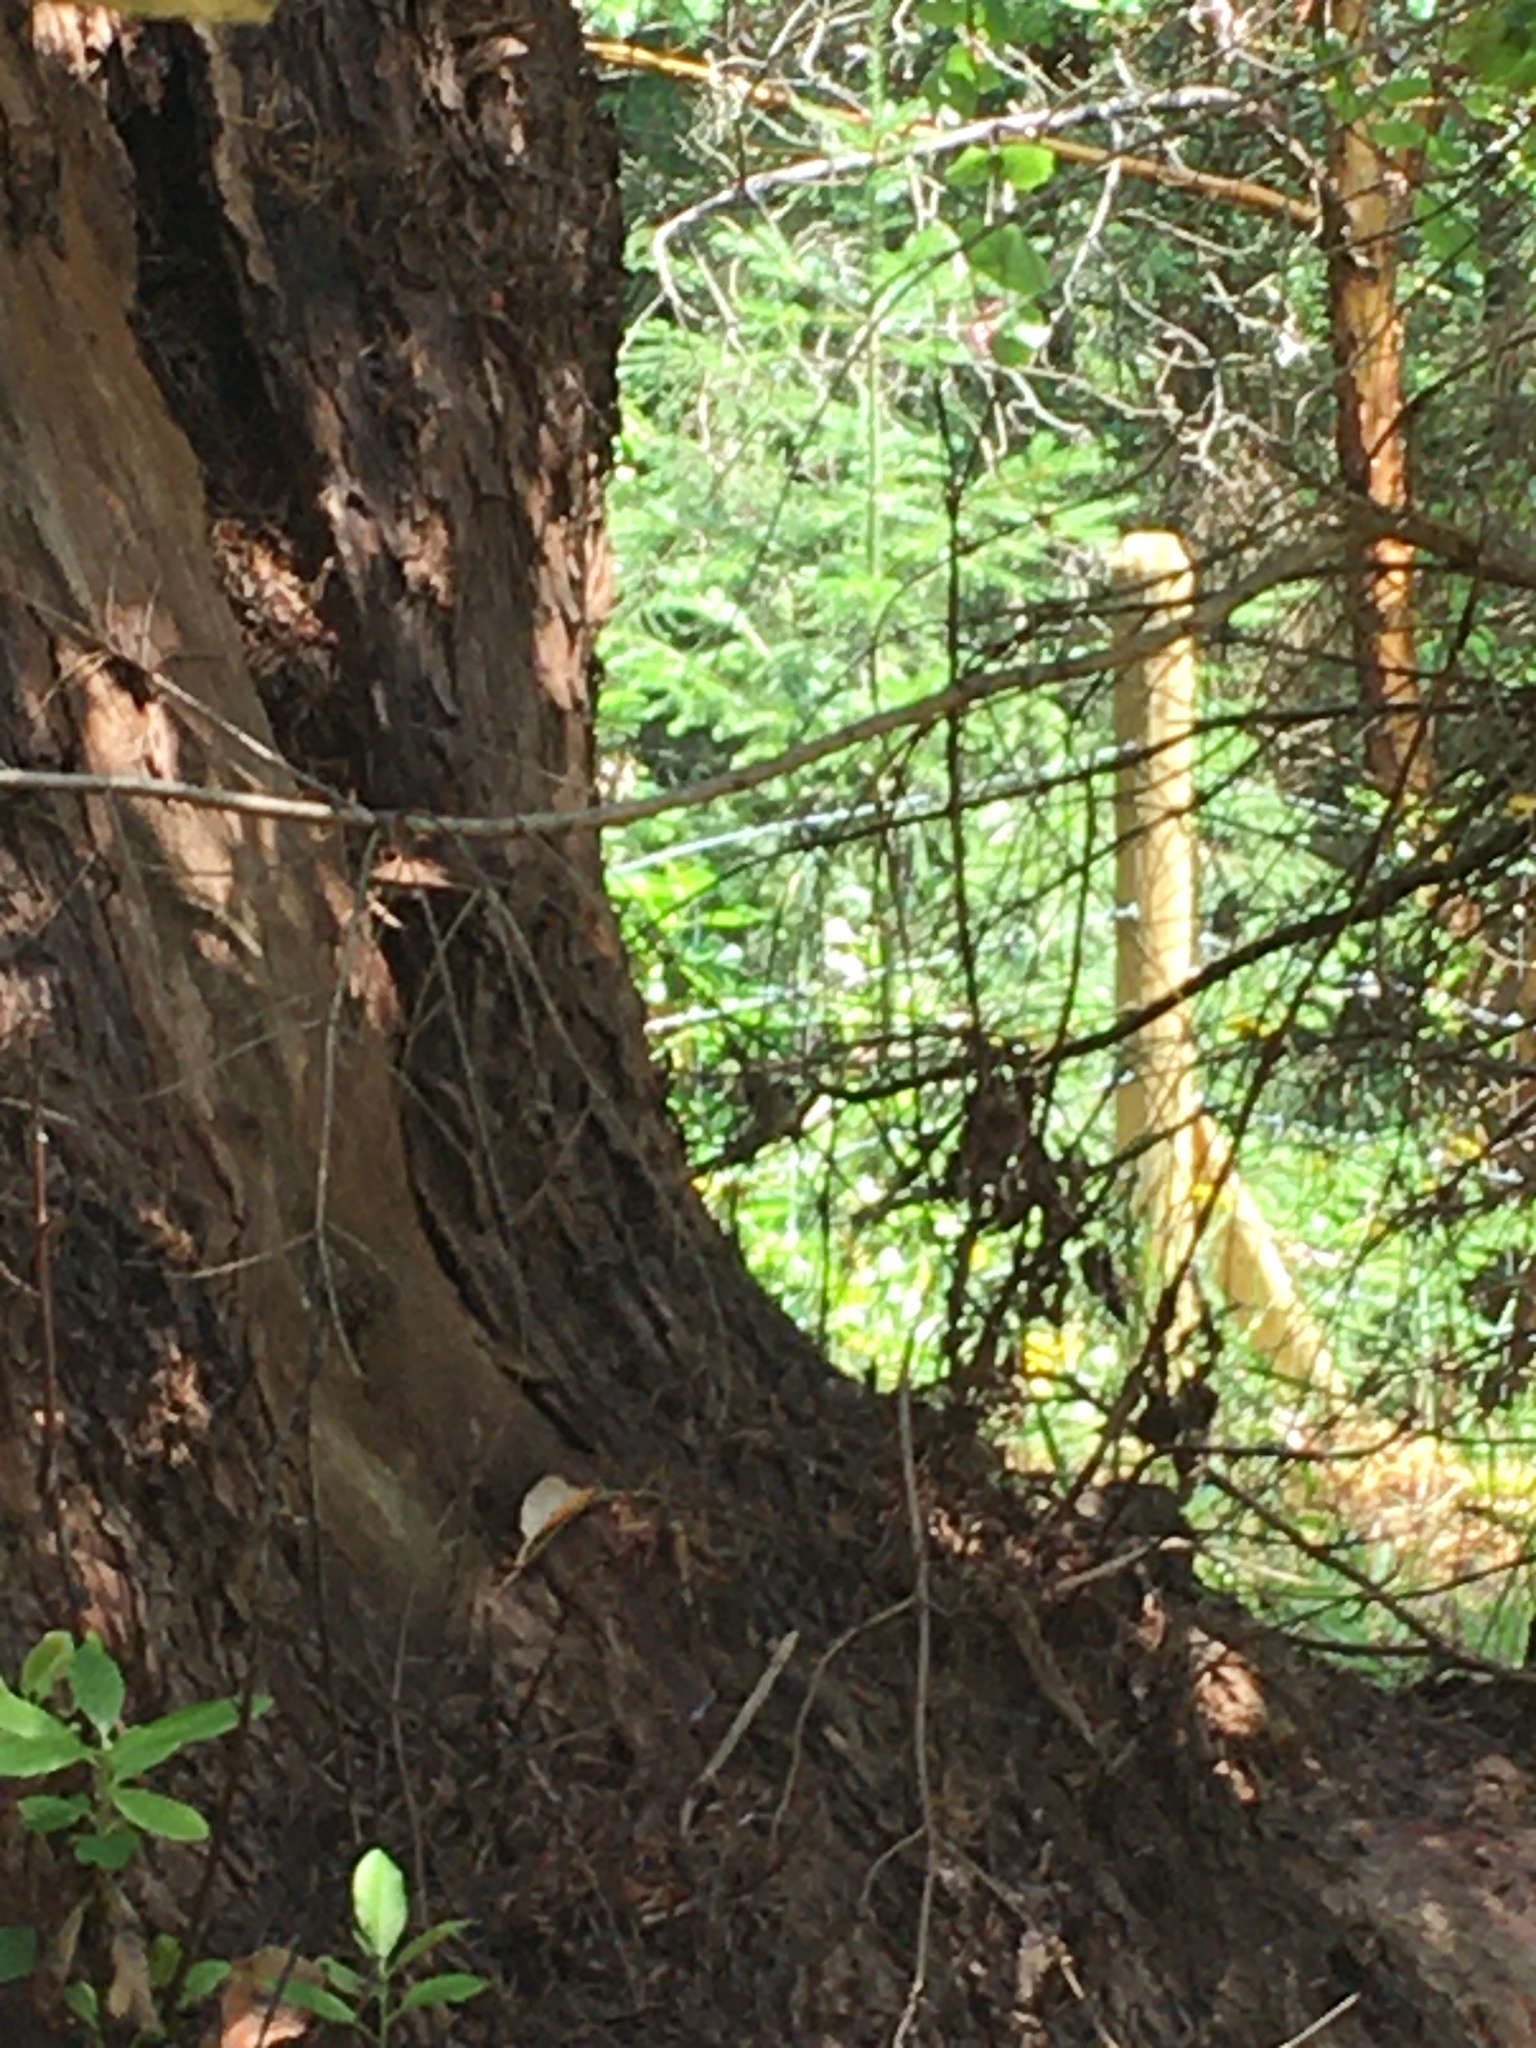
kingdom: Animalia
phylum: Chordata
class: Aves
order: Passeriformes
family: Troglodytidae
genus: Troglodytes
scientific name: Troglodytes aedon
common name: House wren
